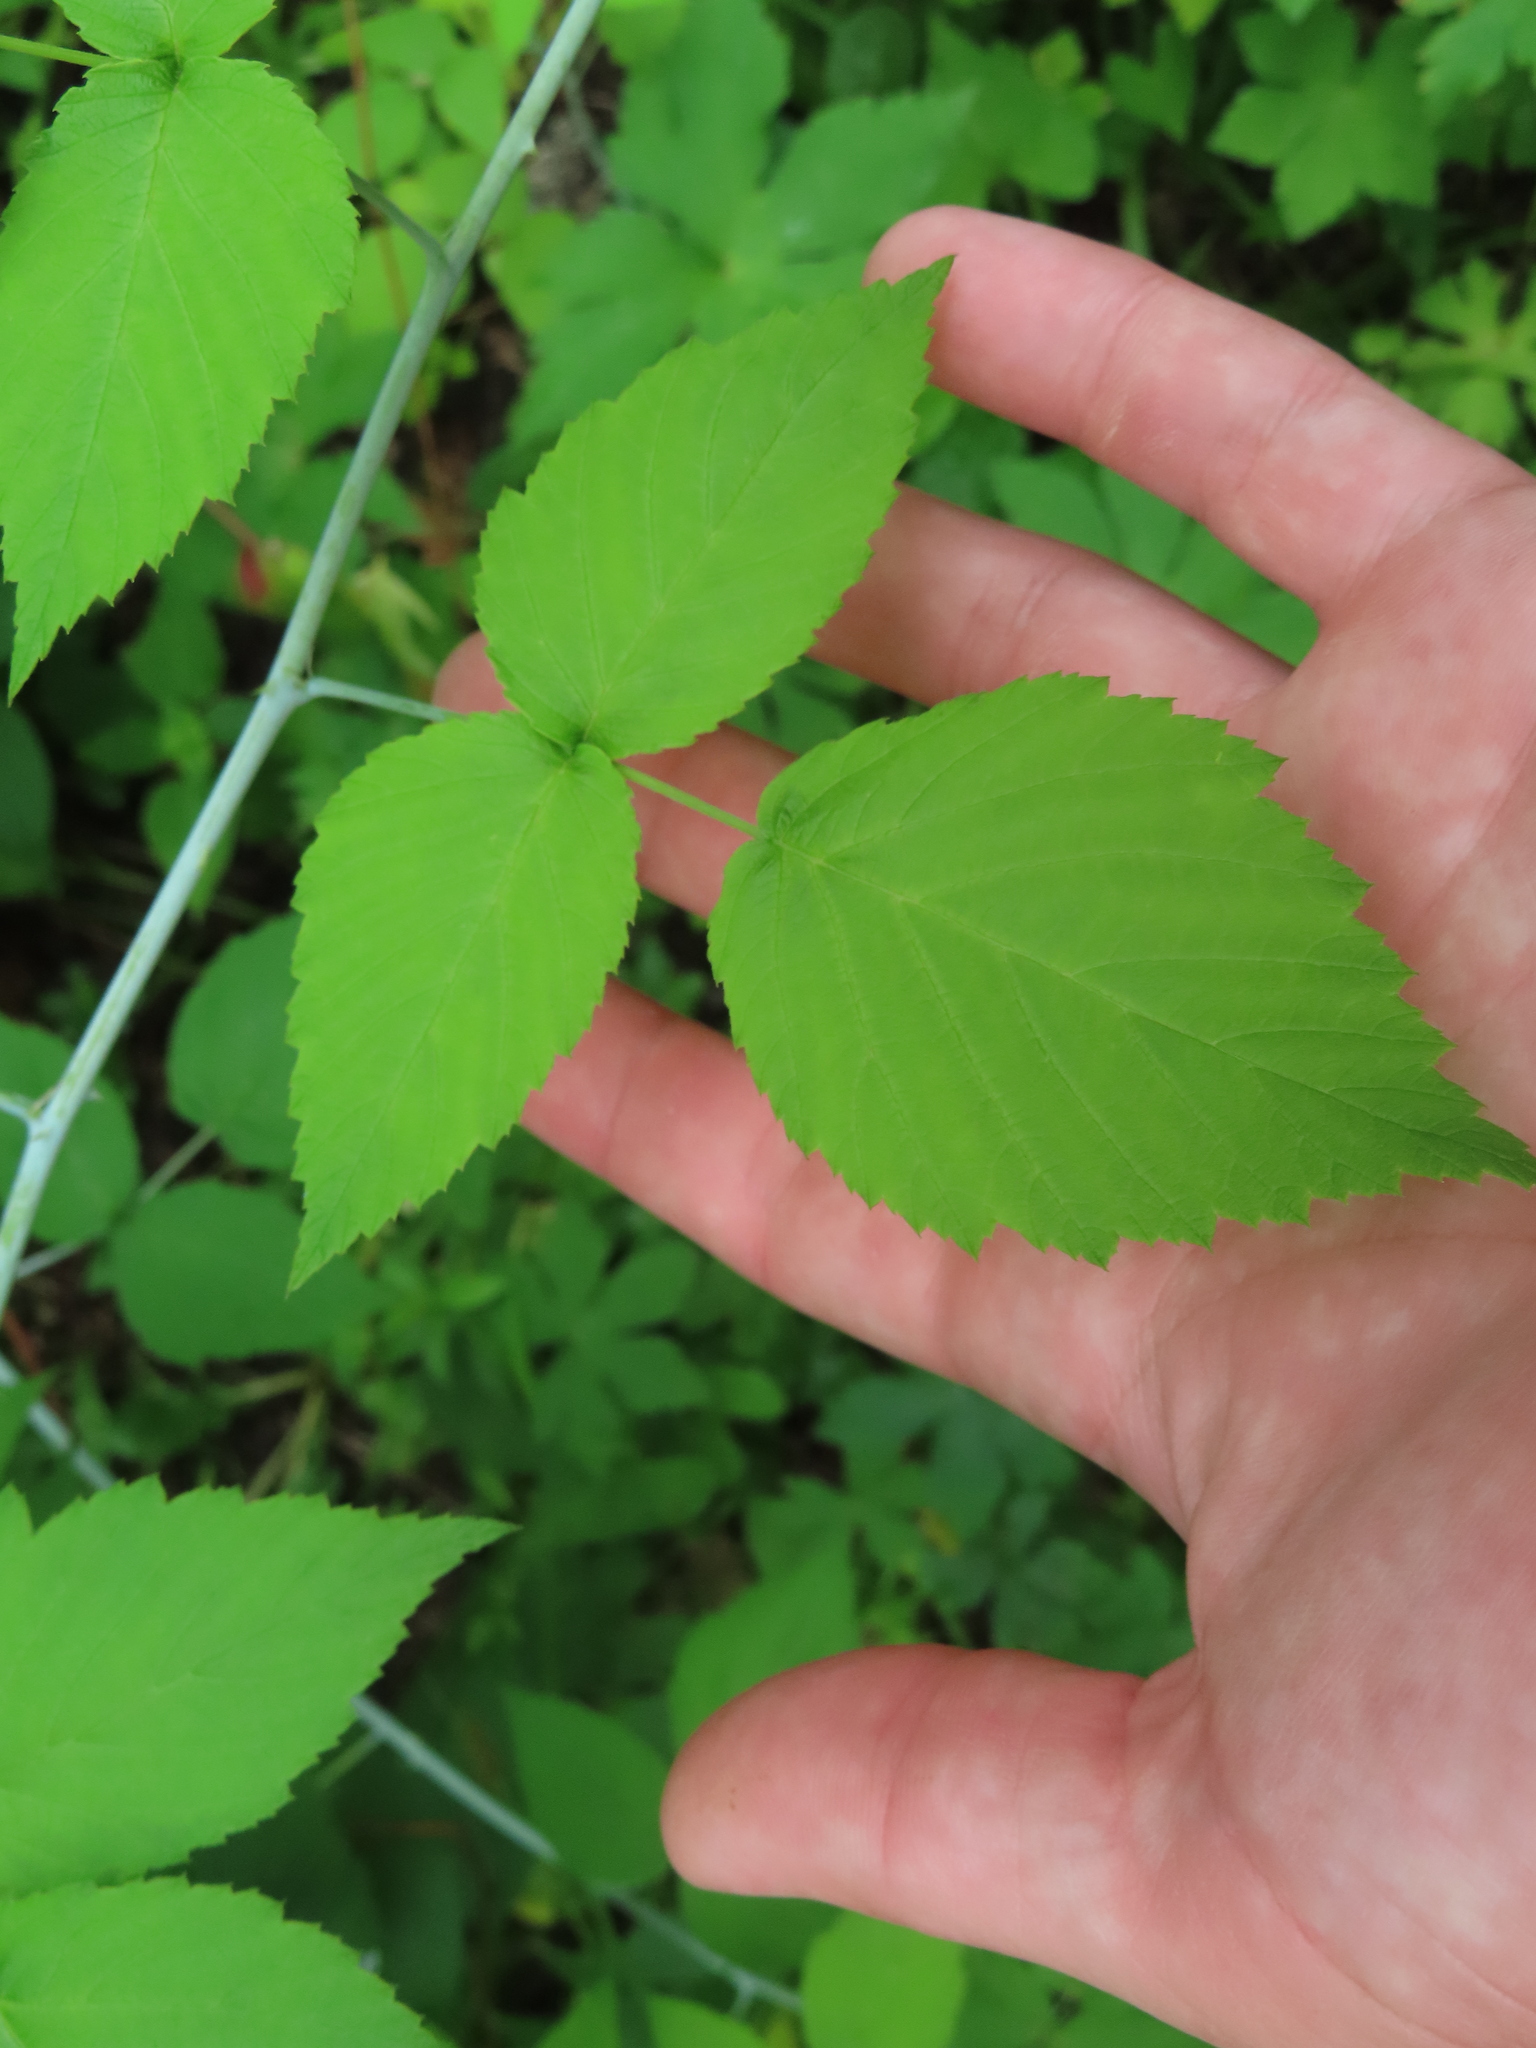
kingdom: Plantae
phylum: Tracheophyta
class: Magnoliopsida
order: Rosales
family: Rosaceae
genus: Rubus
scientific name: Rubus occidentalis
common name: Black raspberry
